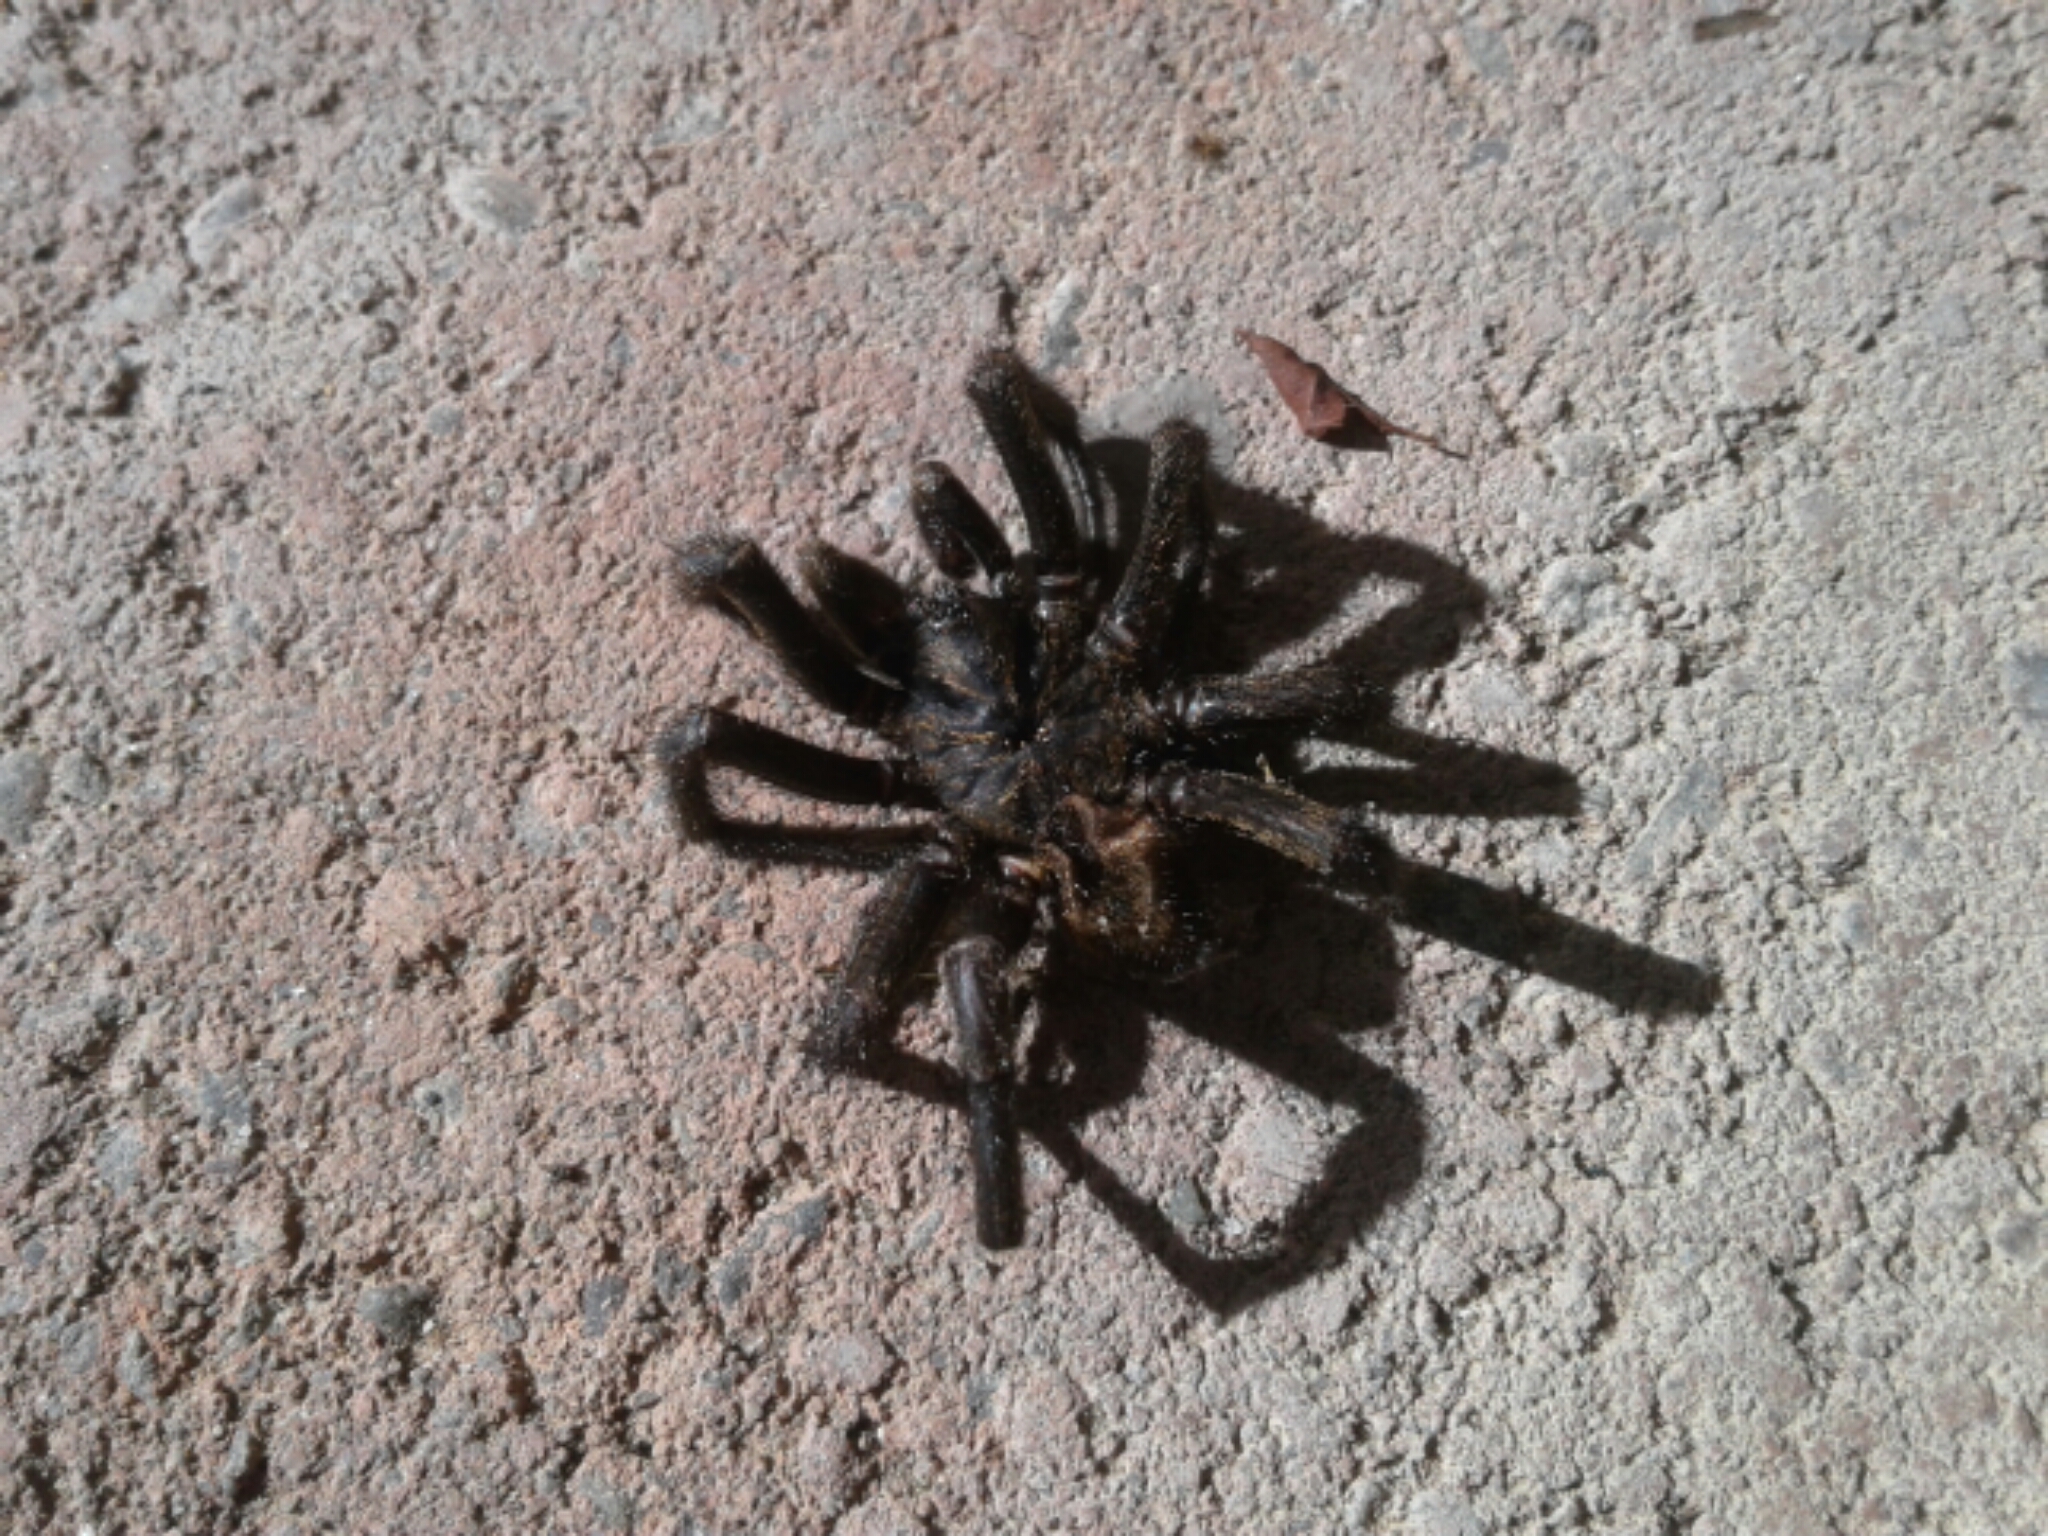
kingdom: Animalia
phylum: Arthropoda
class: Arachnida
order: Araneae
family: Idiopidae
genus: Cantuaria
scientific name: Cantuaria
